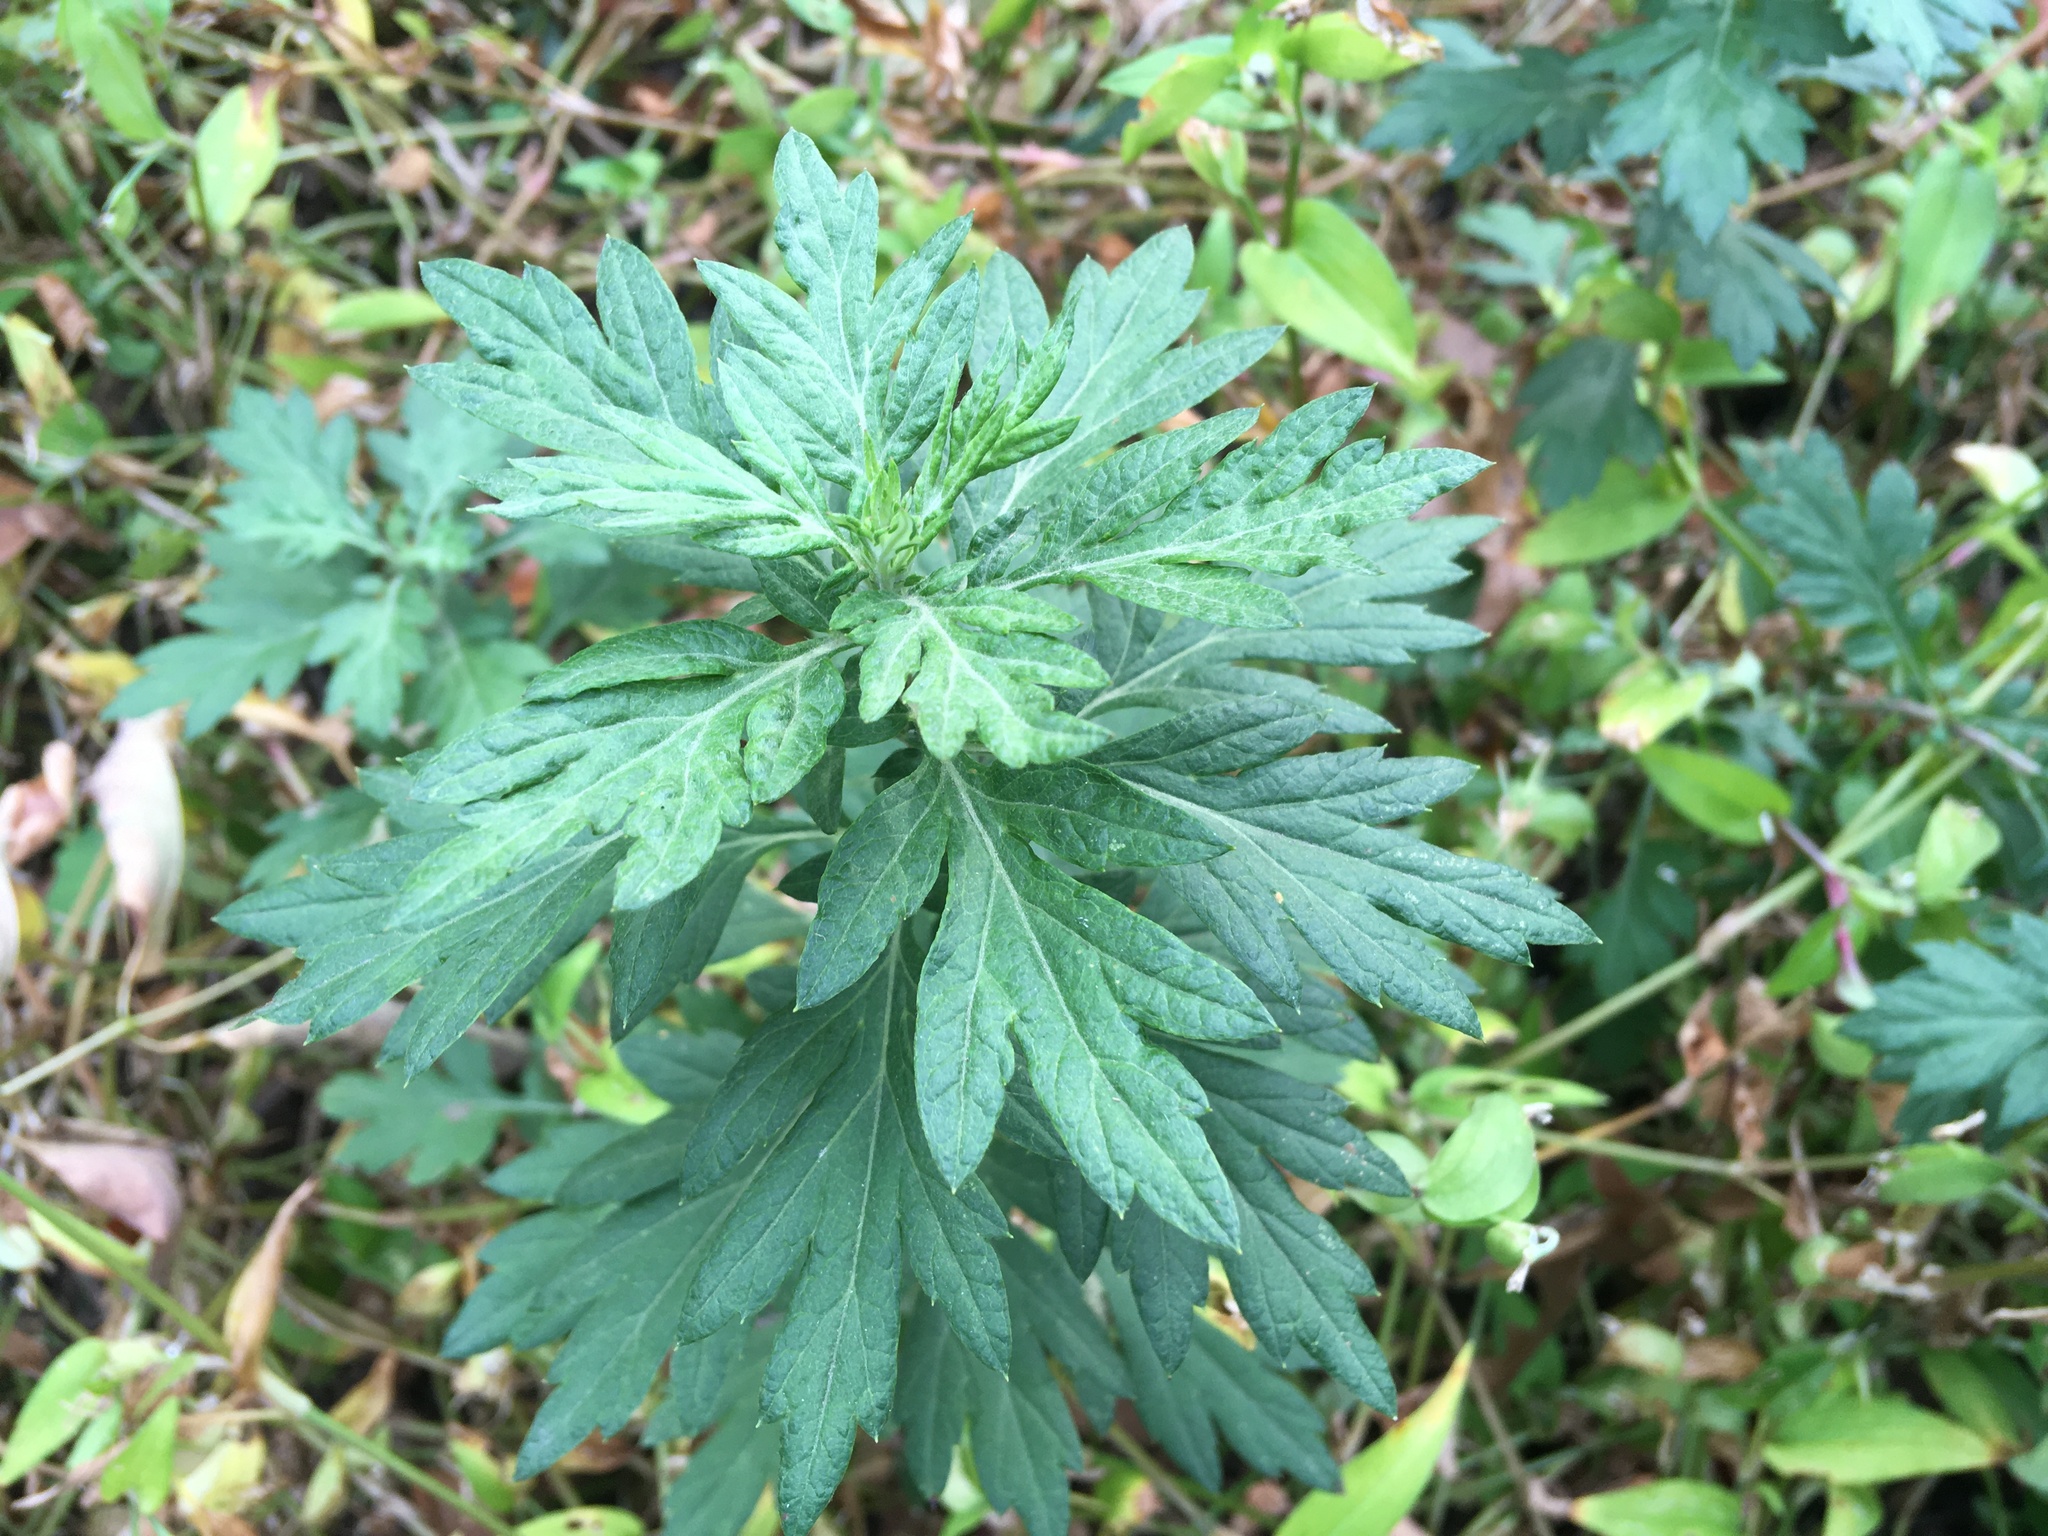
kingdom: Plantae
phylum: Tracheophyta
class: Magnoliopsida
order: Asterales
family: Asteraceae
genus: Artemisia
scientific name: Artemisia vulgaris
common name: Mugwort
